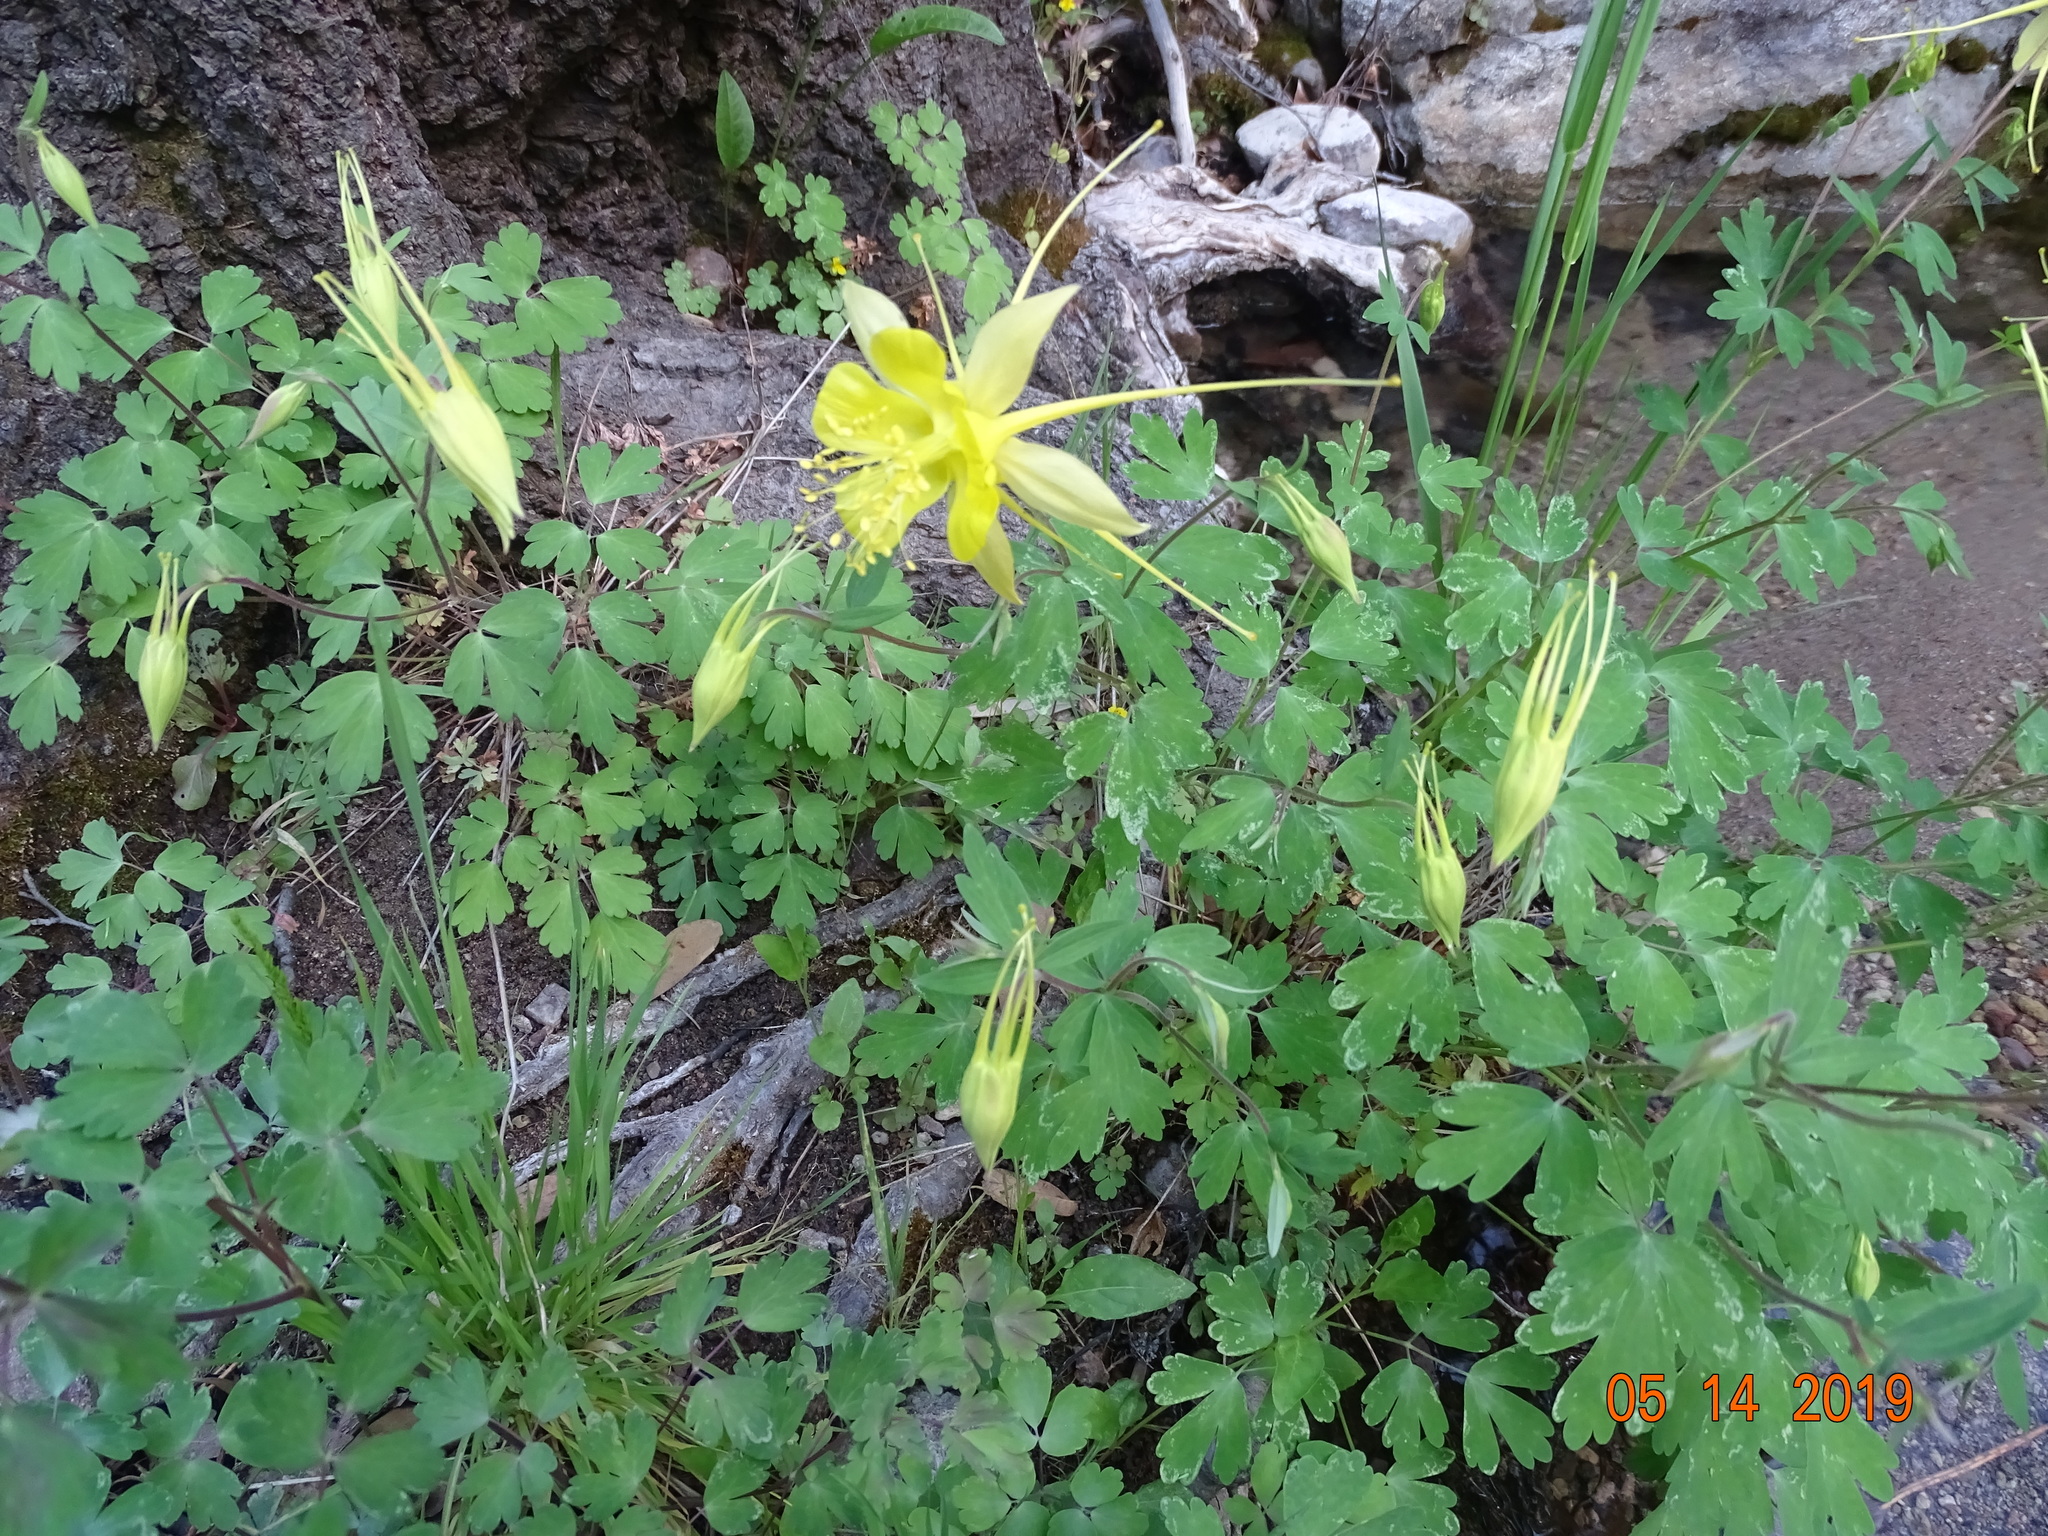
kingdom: Plantae
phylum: Tracheophyta
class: Magnoliopsida
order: Ranunculales
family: Ranunculaceae
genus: Aquilegia
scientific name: Aquilegia longissima
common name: Long-spur columbine
